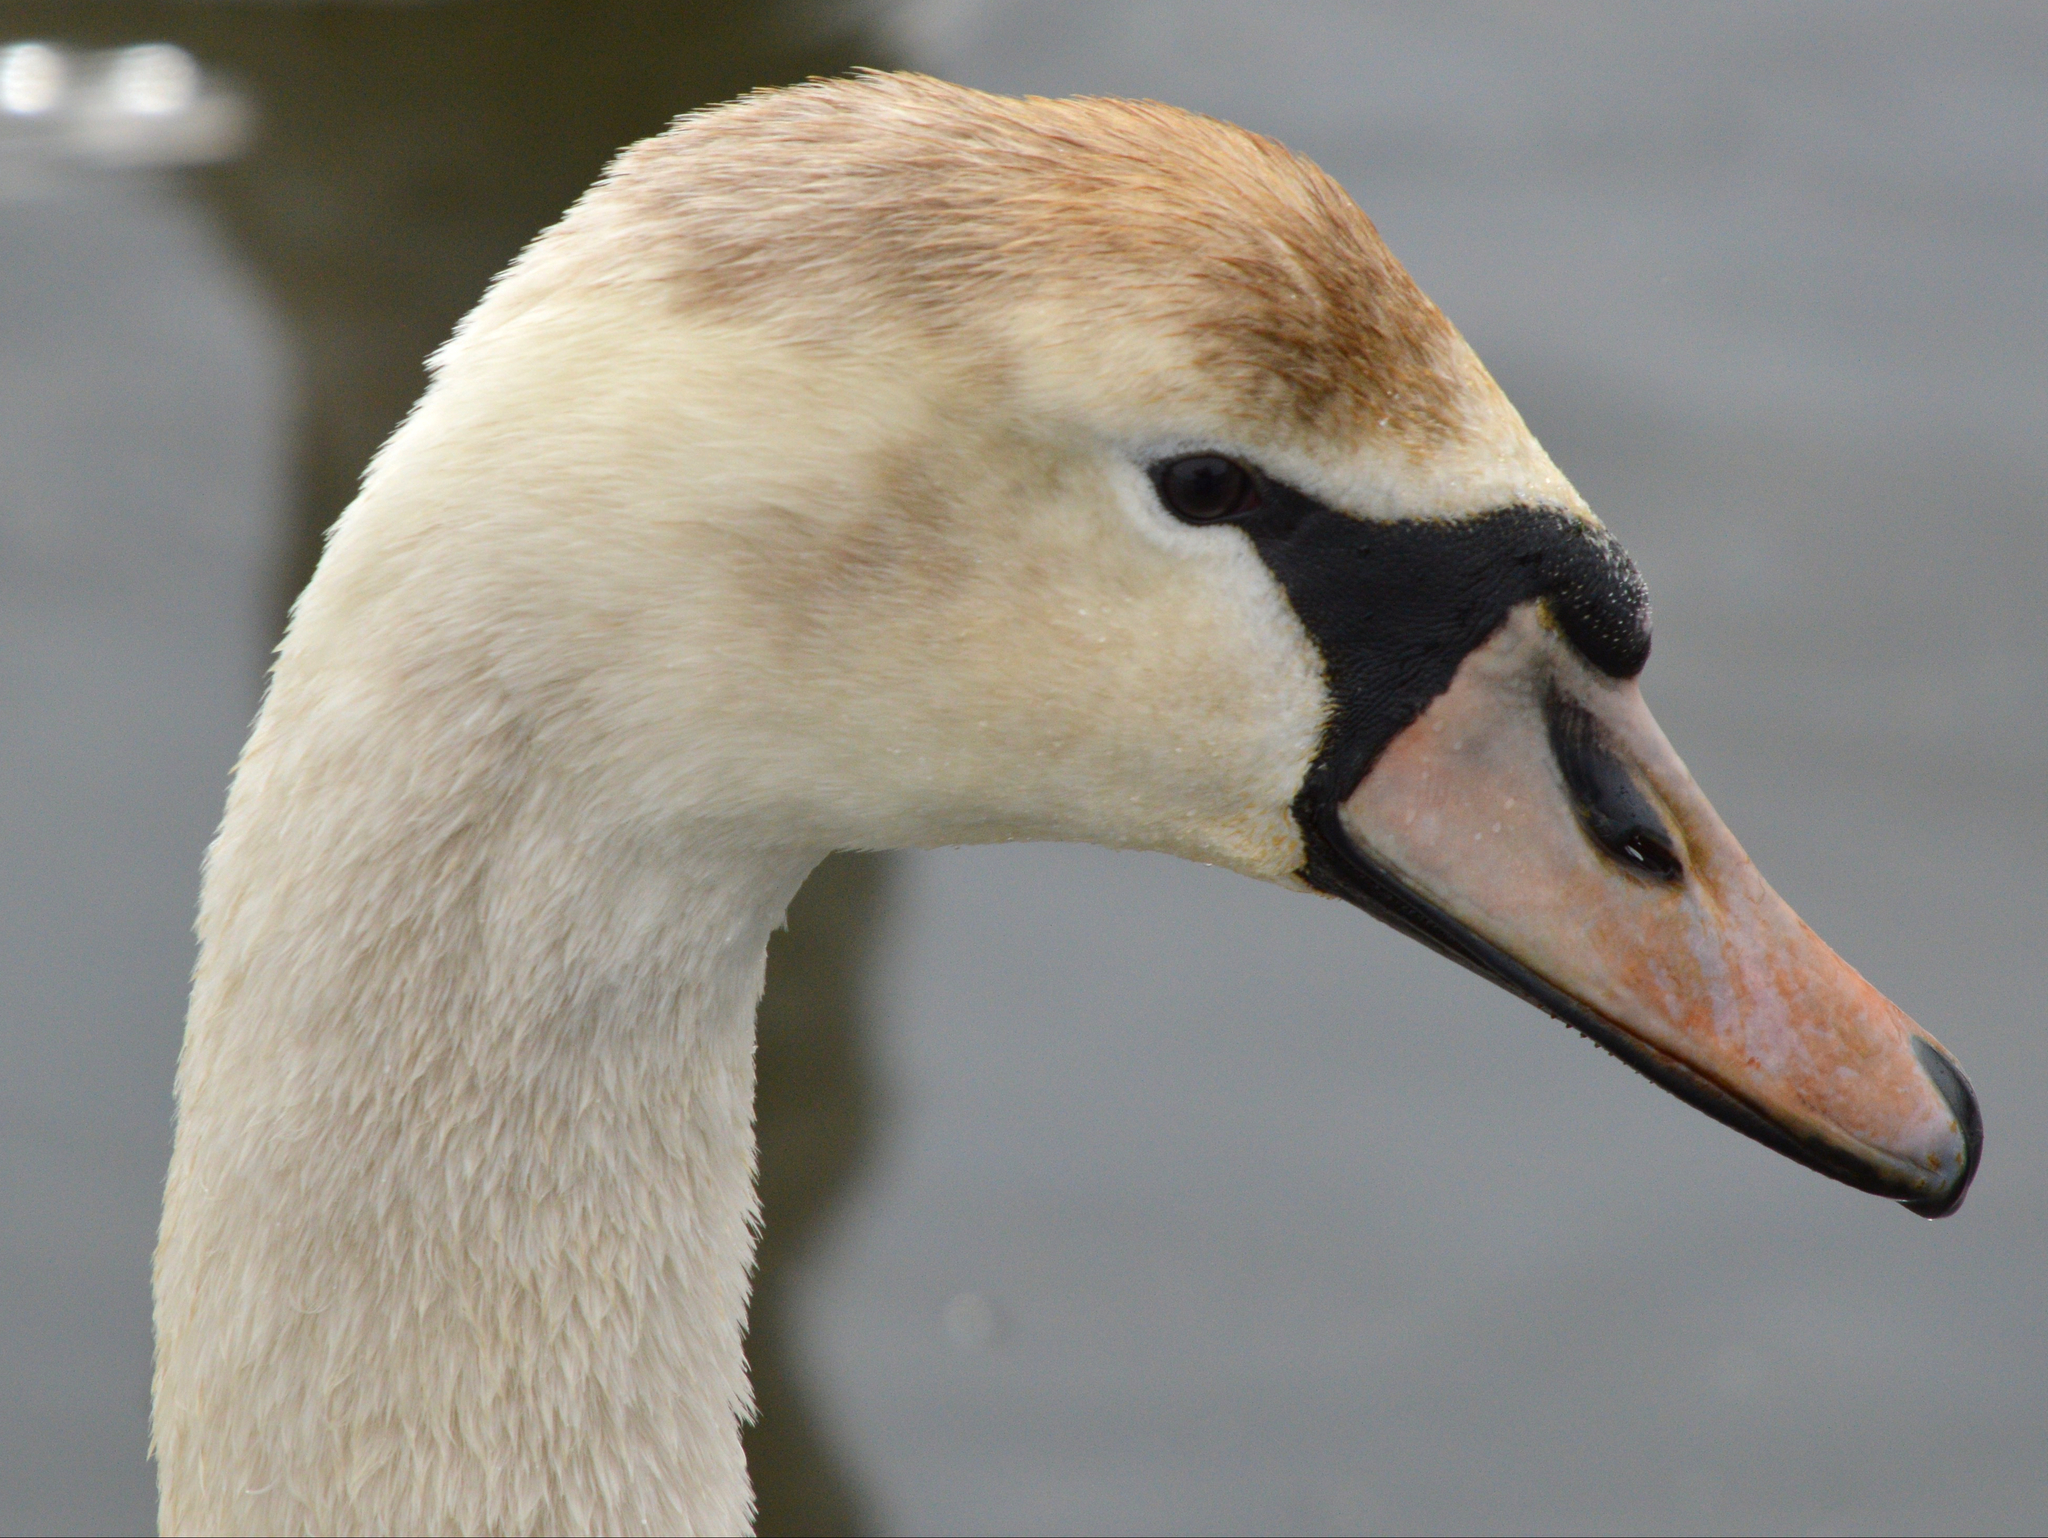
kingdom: Animalia
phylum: Chordata
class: Aves
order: Anseriformes
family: Anatidae
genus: Cygnus
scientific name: Cygnus olor
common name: Mute swan
